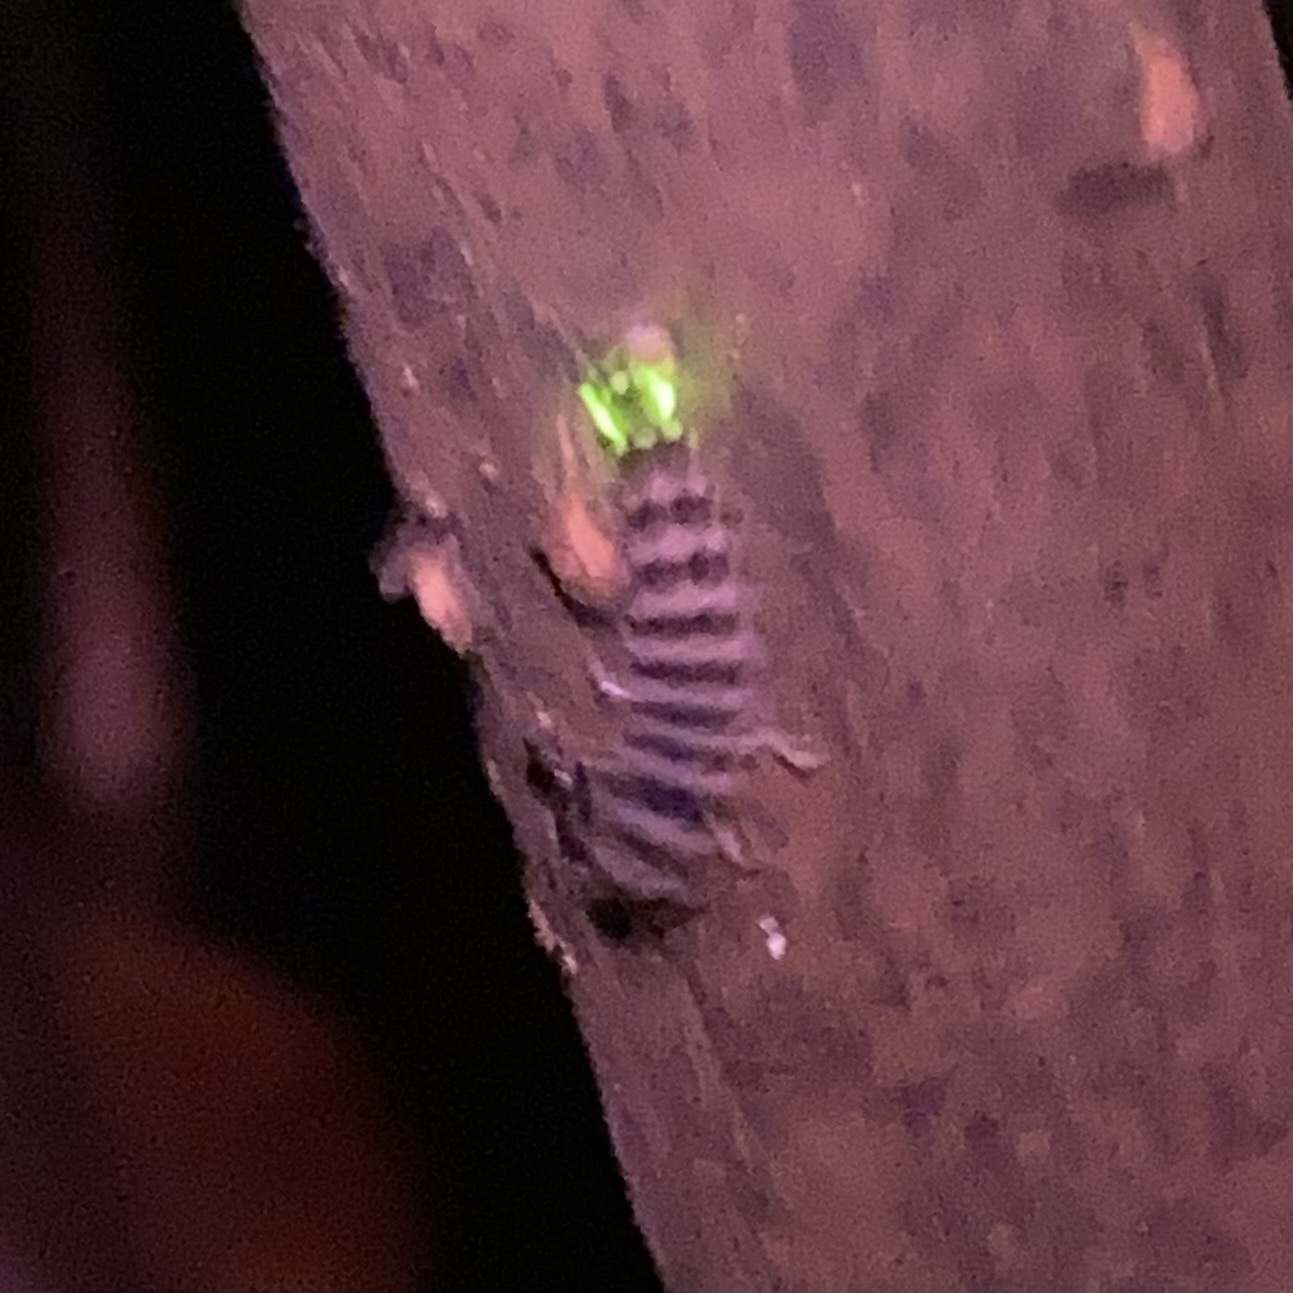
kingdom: Animalia
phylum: Arthropoda
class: Insecta
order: Coleoptera
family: Lampyridae
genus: Micronaspis
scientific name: Micronaspis floridana
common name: Florida intertidal firefly
